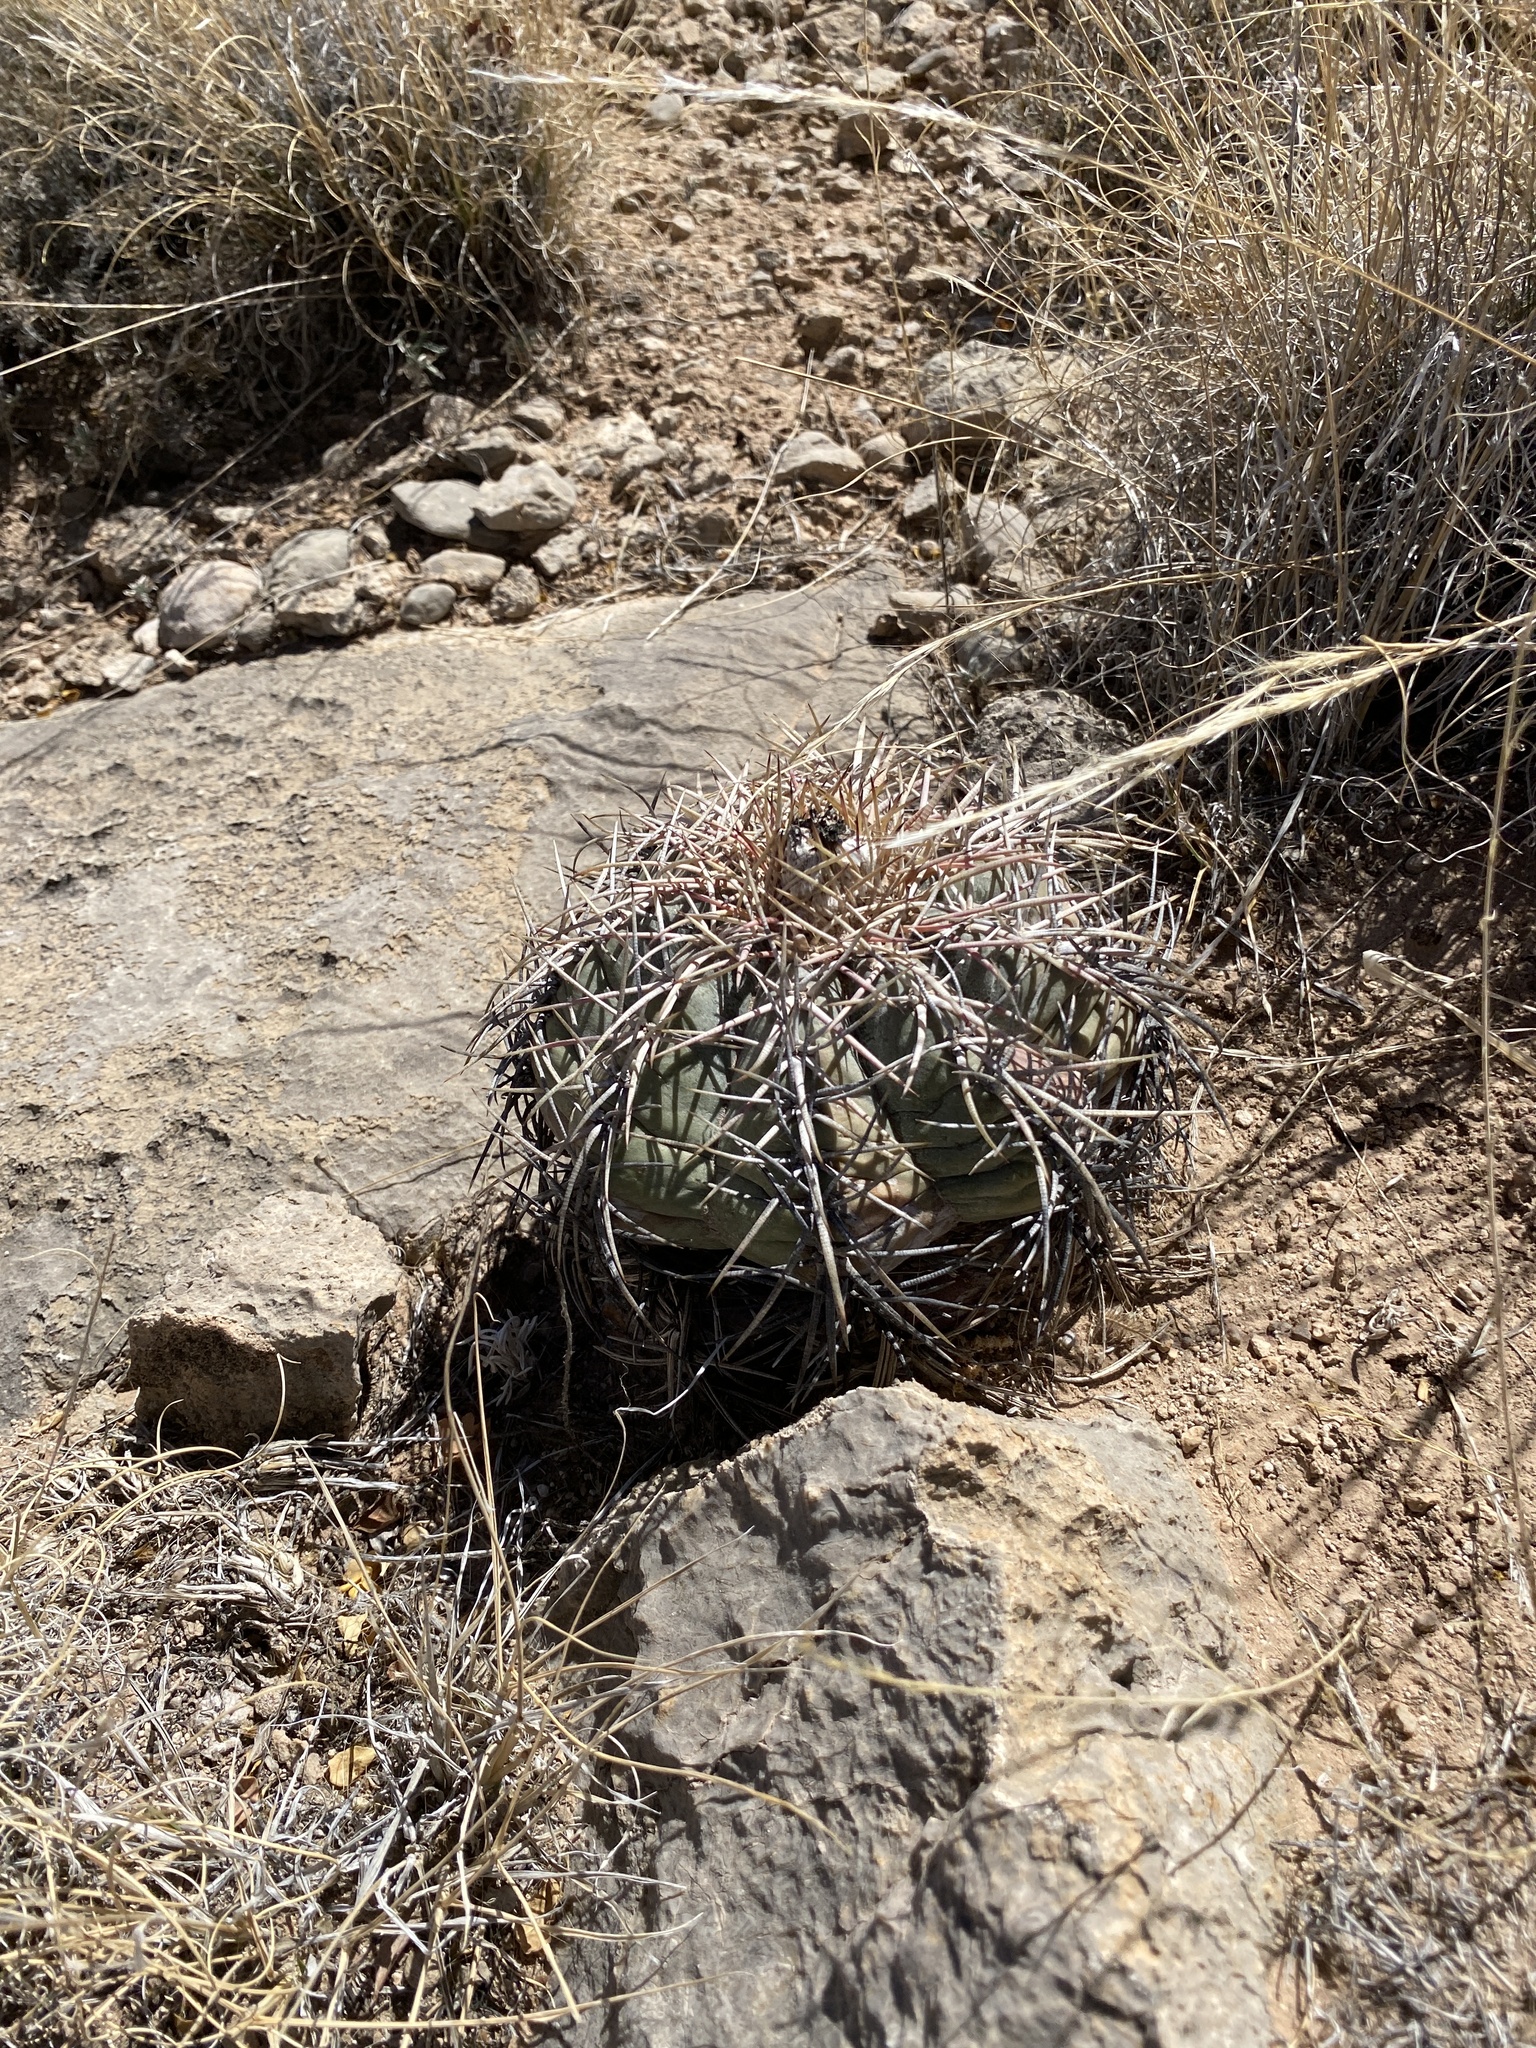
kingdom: Plantae
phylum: Tracheophyta
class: Magnoliopsida
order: Caryophyllales
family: Cactaceae
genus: Echinocactus
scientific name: Echinocactus horizonthalonius
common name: Devilshead
